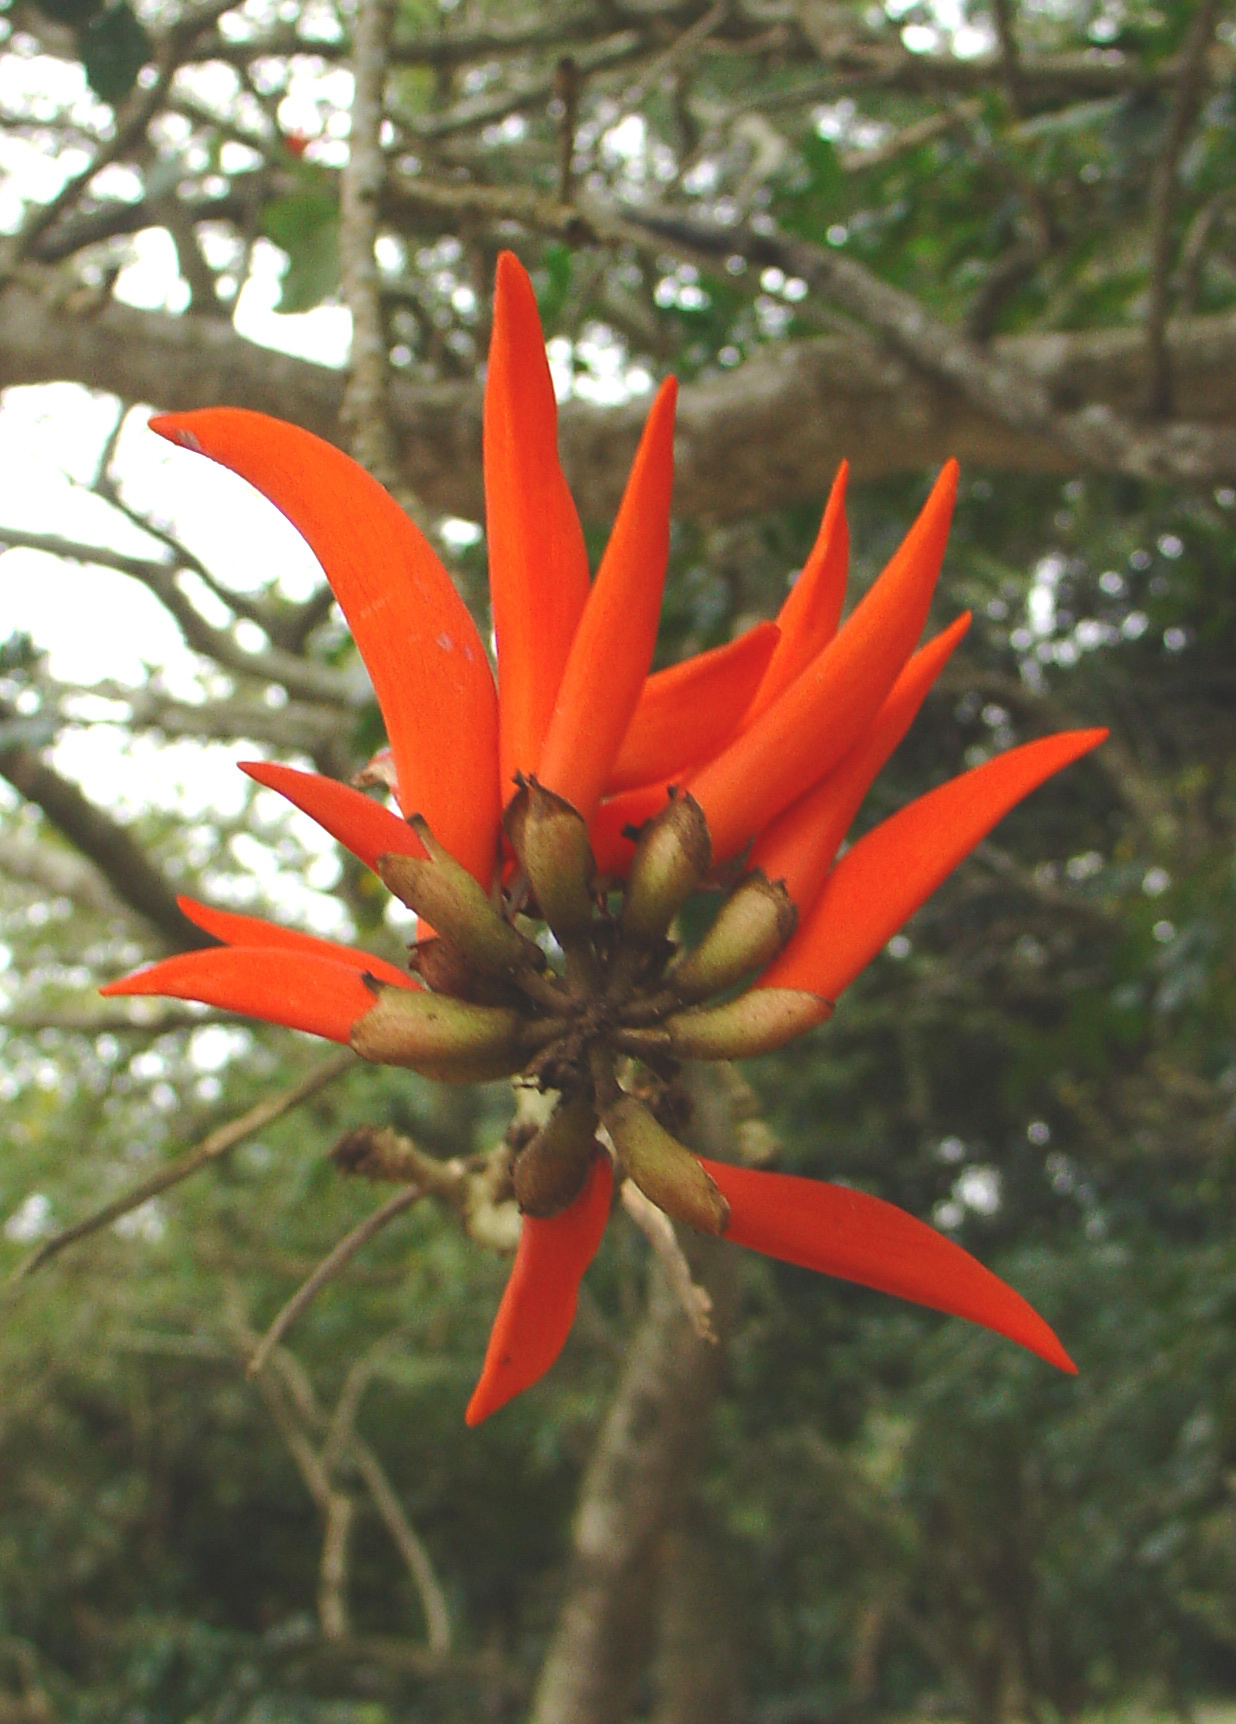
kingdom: Plantae
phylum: Tracheophyta
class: Magnoliopsida
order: Fabales
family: Fabaceae
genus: Erythrina
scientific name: Erythrina lysistemon
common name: Common coral tree
